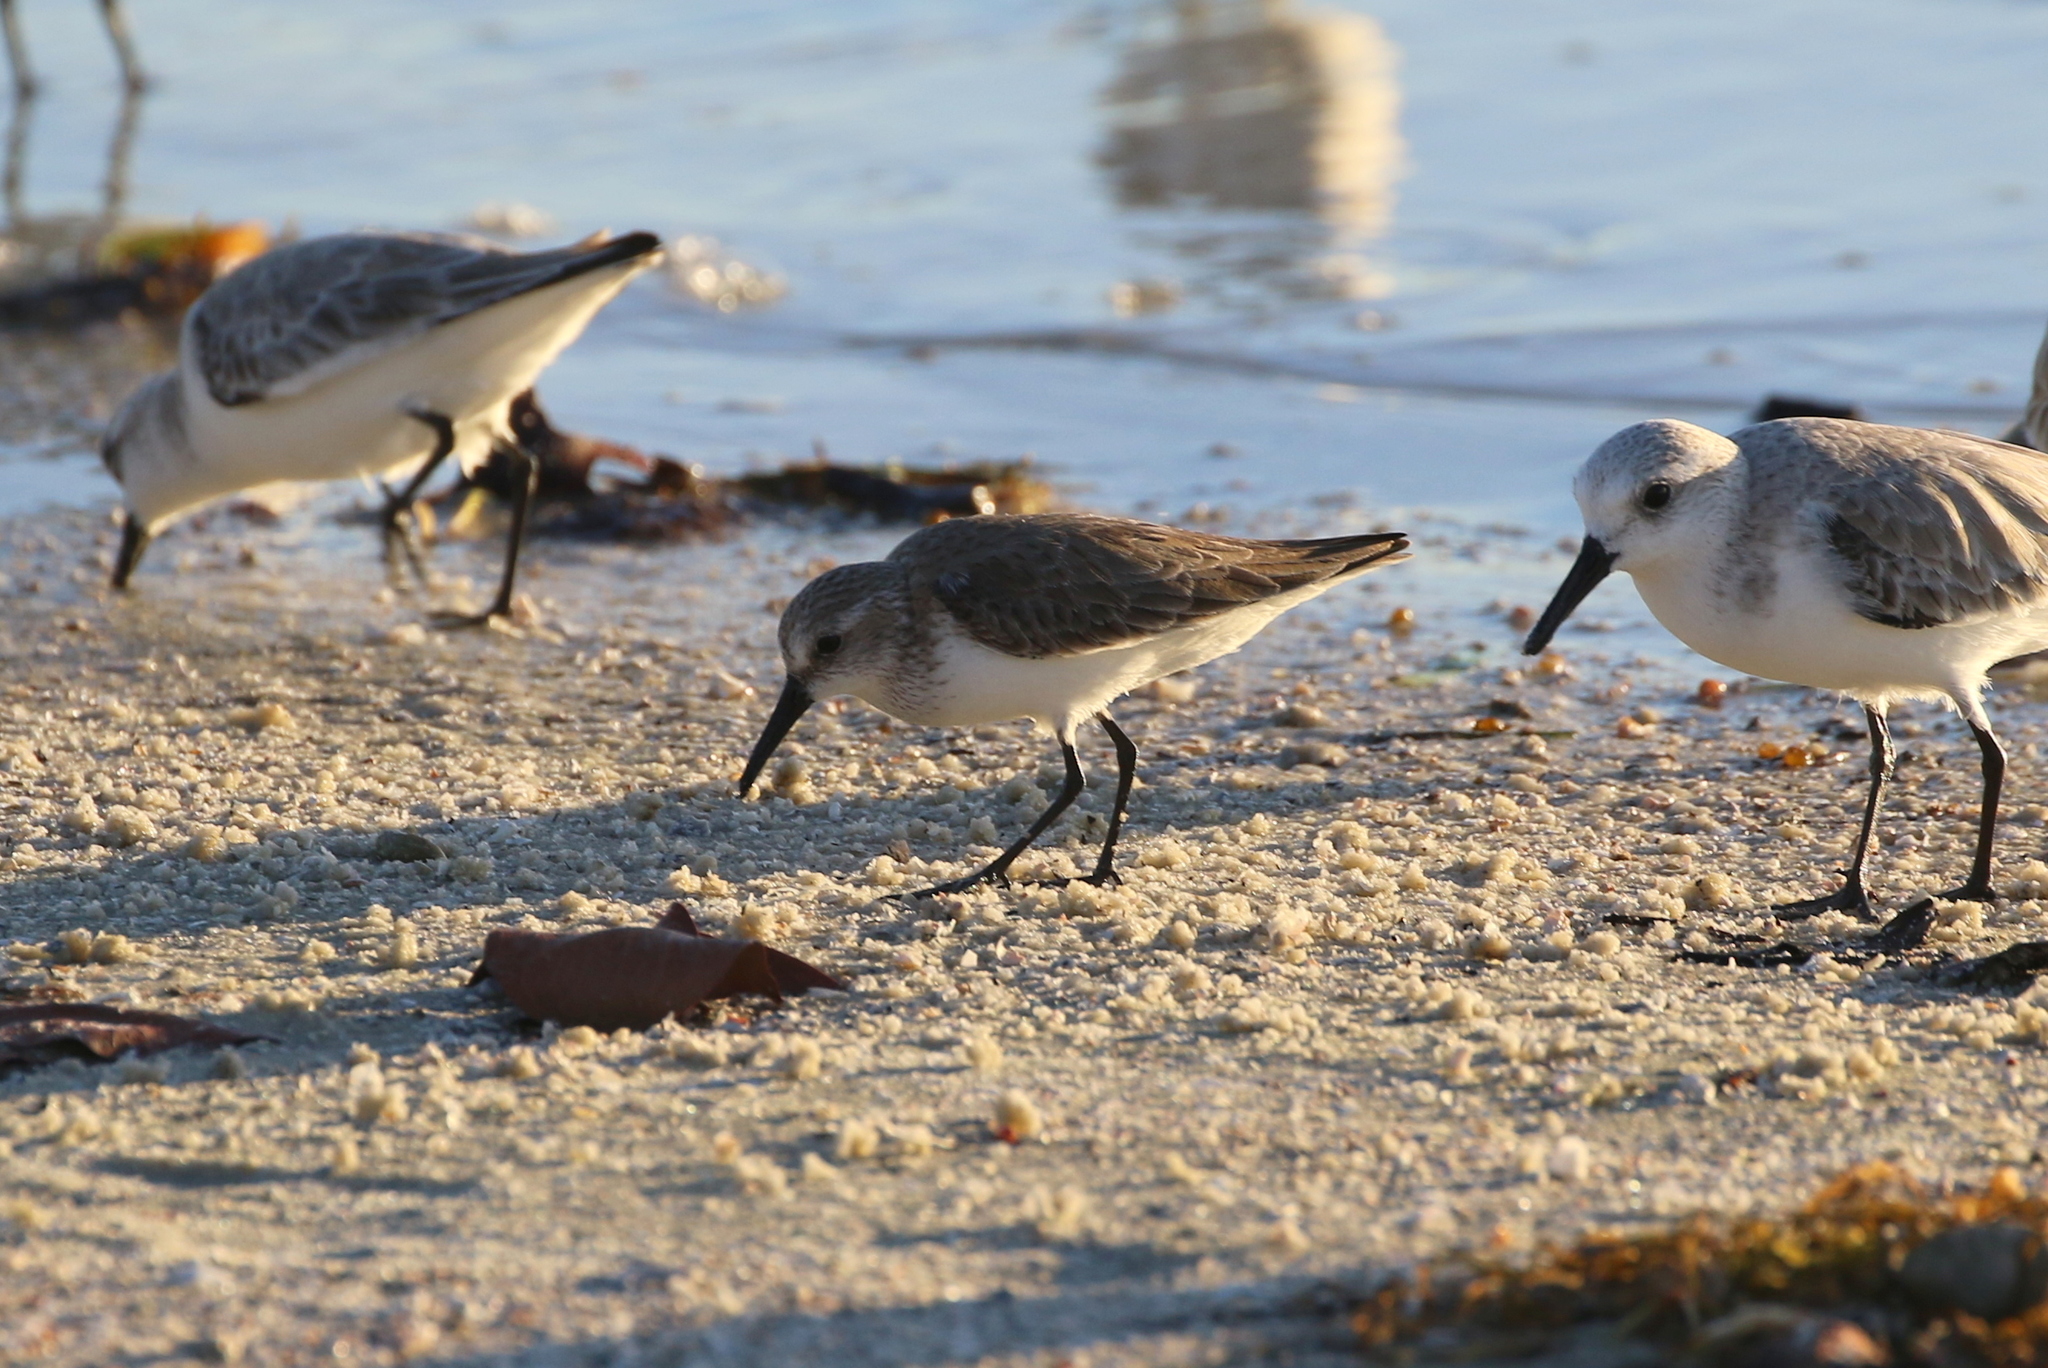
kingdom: Animalia
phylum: Chordata
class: Aves
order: Charadriiformes
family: Scolopacidae
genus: Calidris
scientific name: Calidris mauri
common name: Western sandpiper
